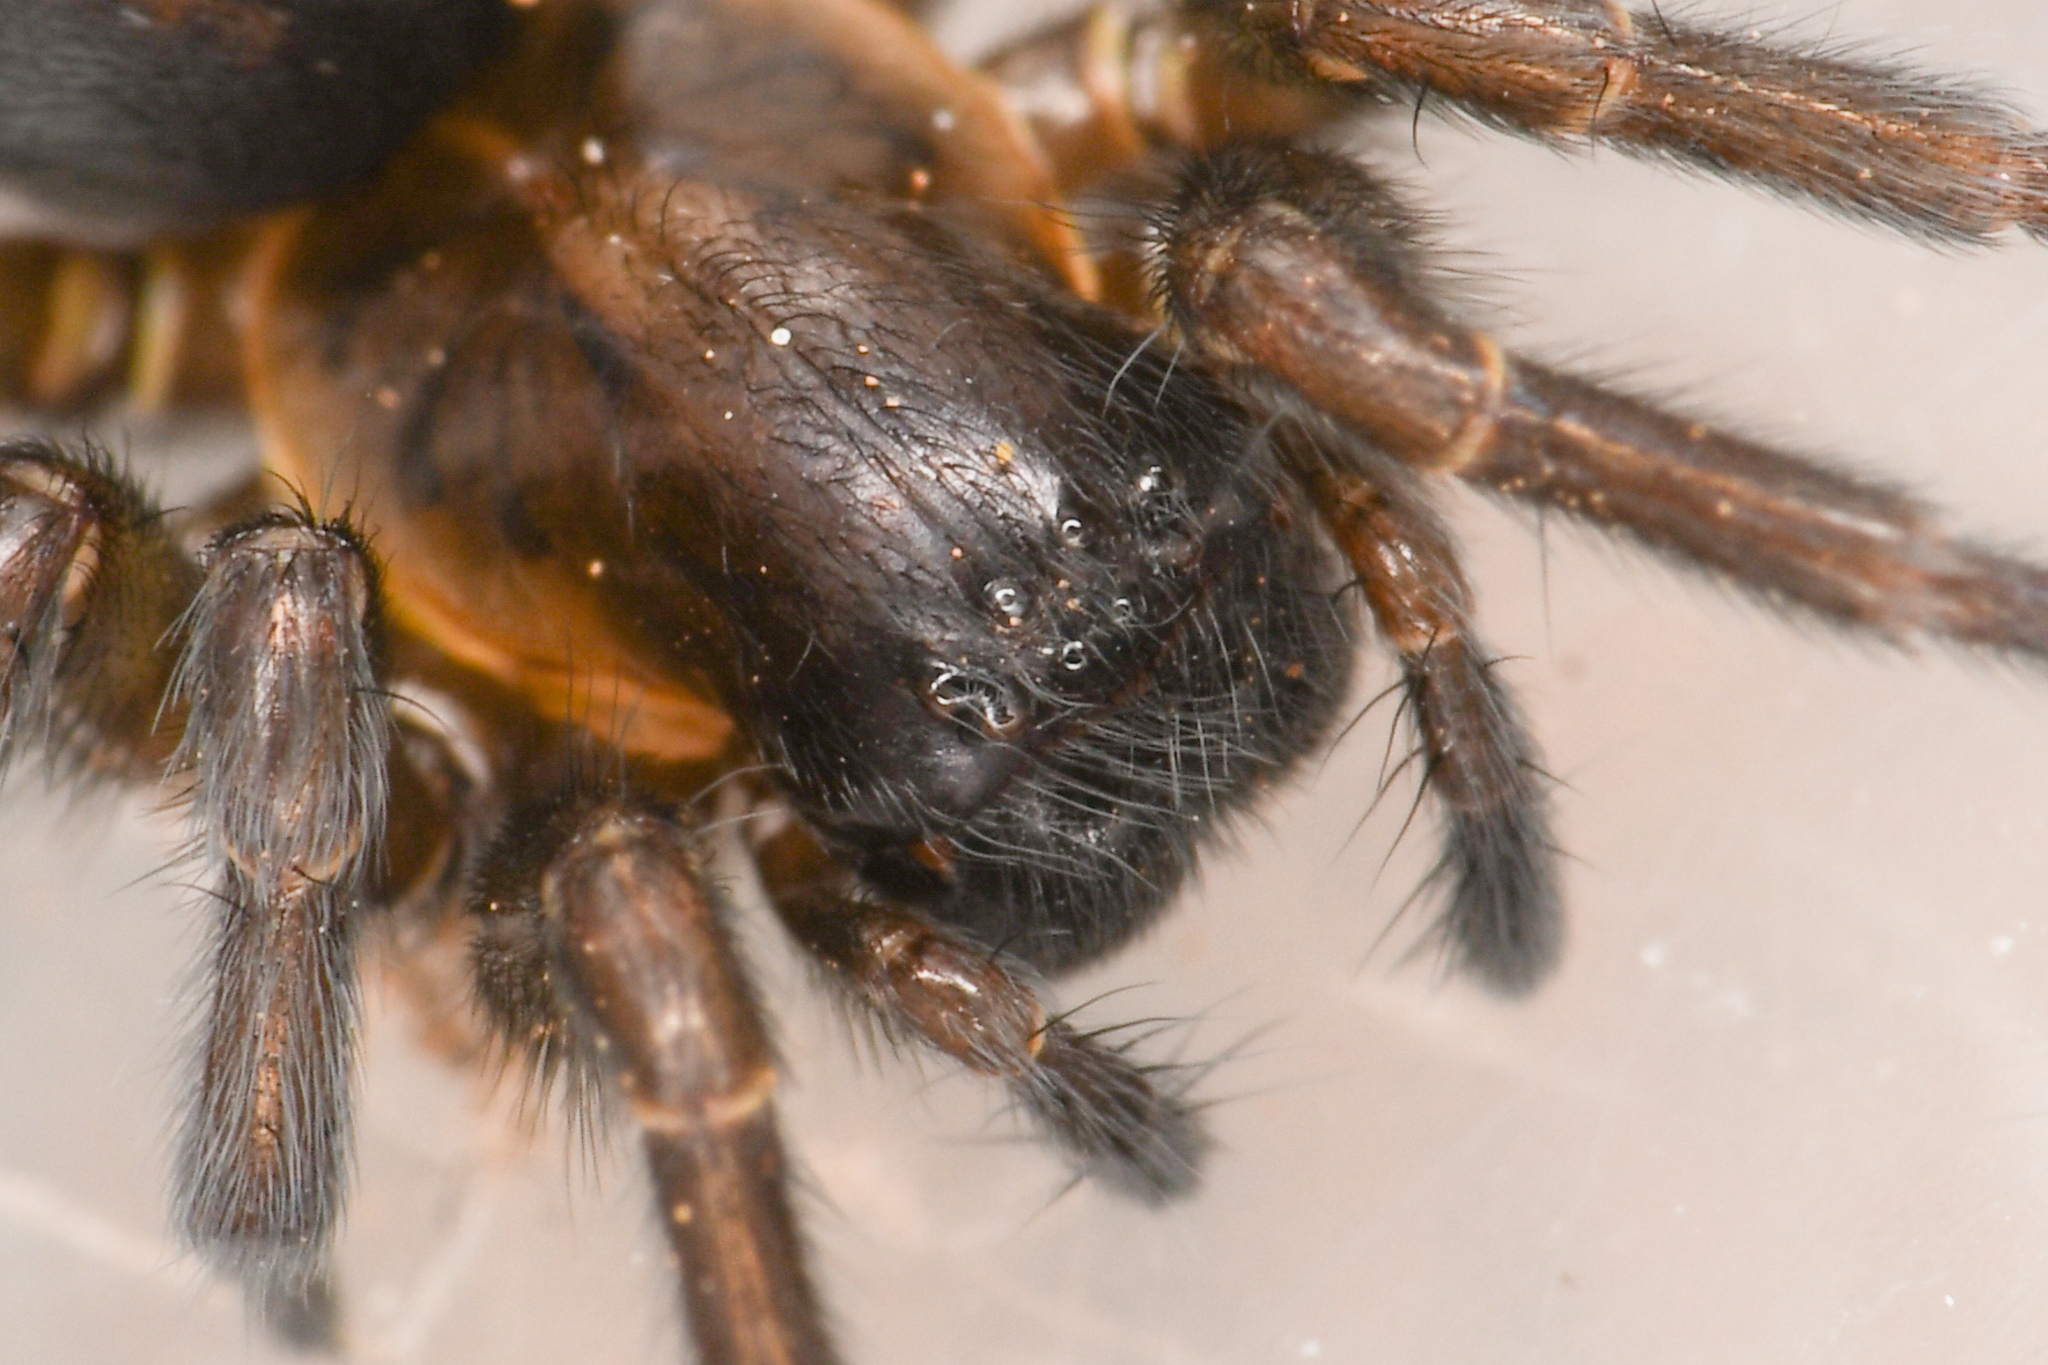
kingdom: Animalia
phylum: Arthropoda
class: Arachnida
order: Araneae
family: Amaurobiidae
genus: Arctobius
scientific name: Arctobius agelenoides
